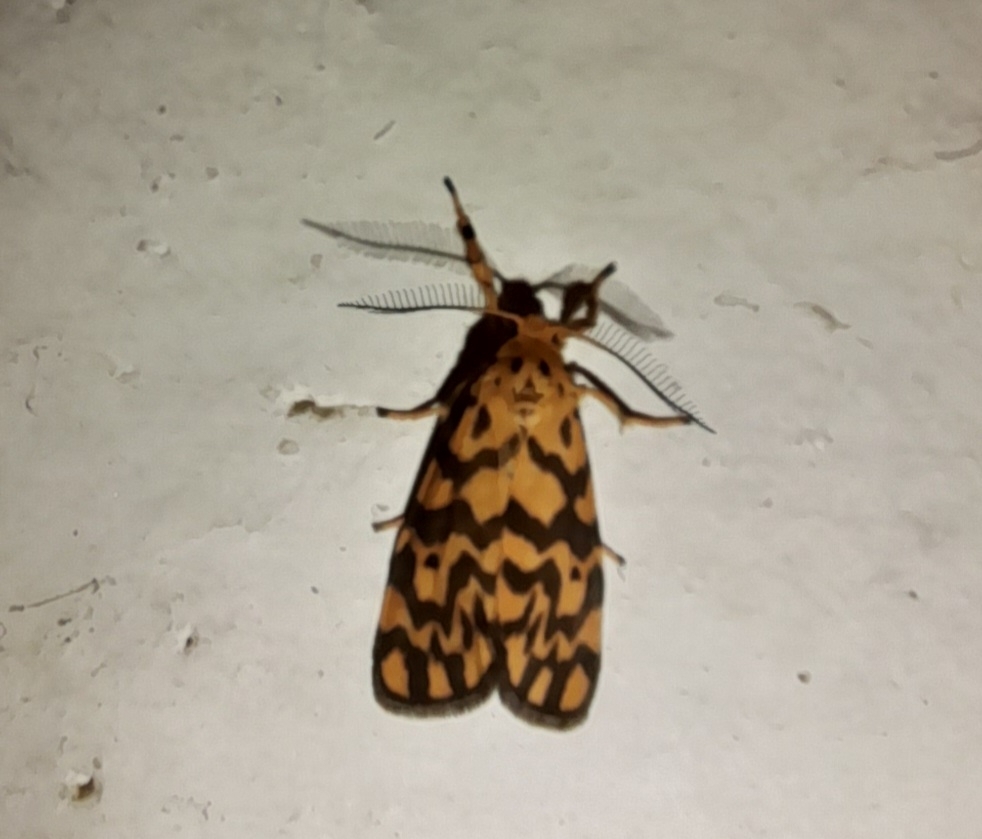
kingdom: Animalia
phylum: Arthropoda
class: Insecta
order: Lepidoptera
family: Erebidae
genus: Nepita
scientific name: Nepita conferta
